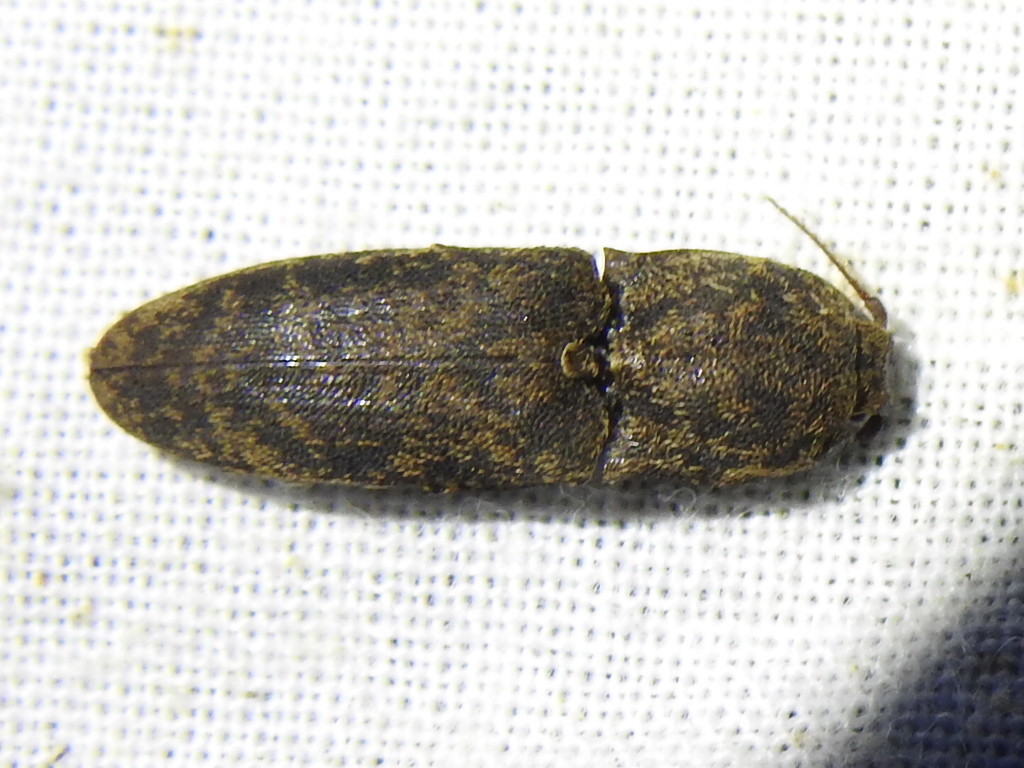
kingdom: Animalia
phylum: Arthropoda
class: Insecta
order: Coleoptera
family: Elateridae
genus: Lacon
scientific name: Lacon marmoratus
